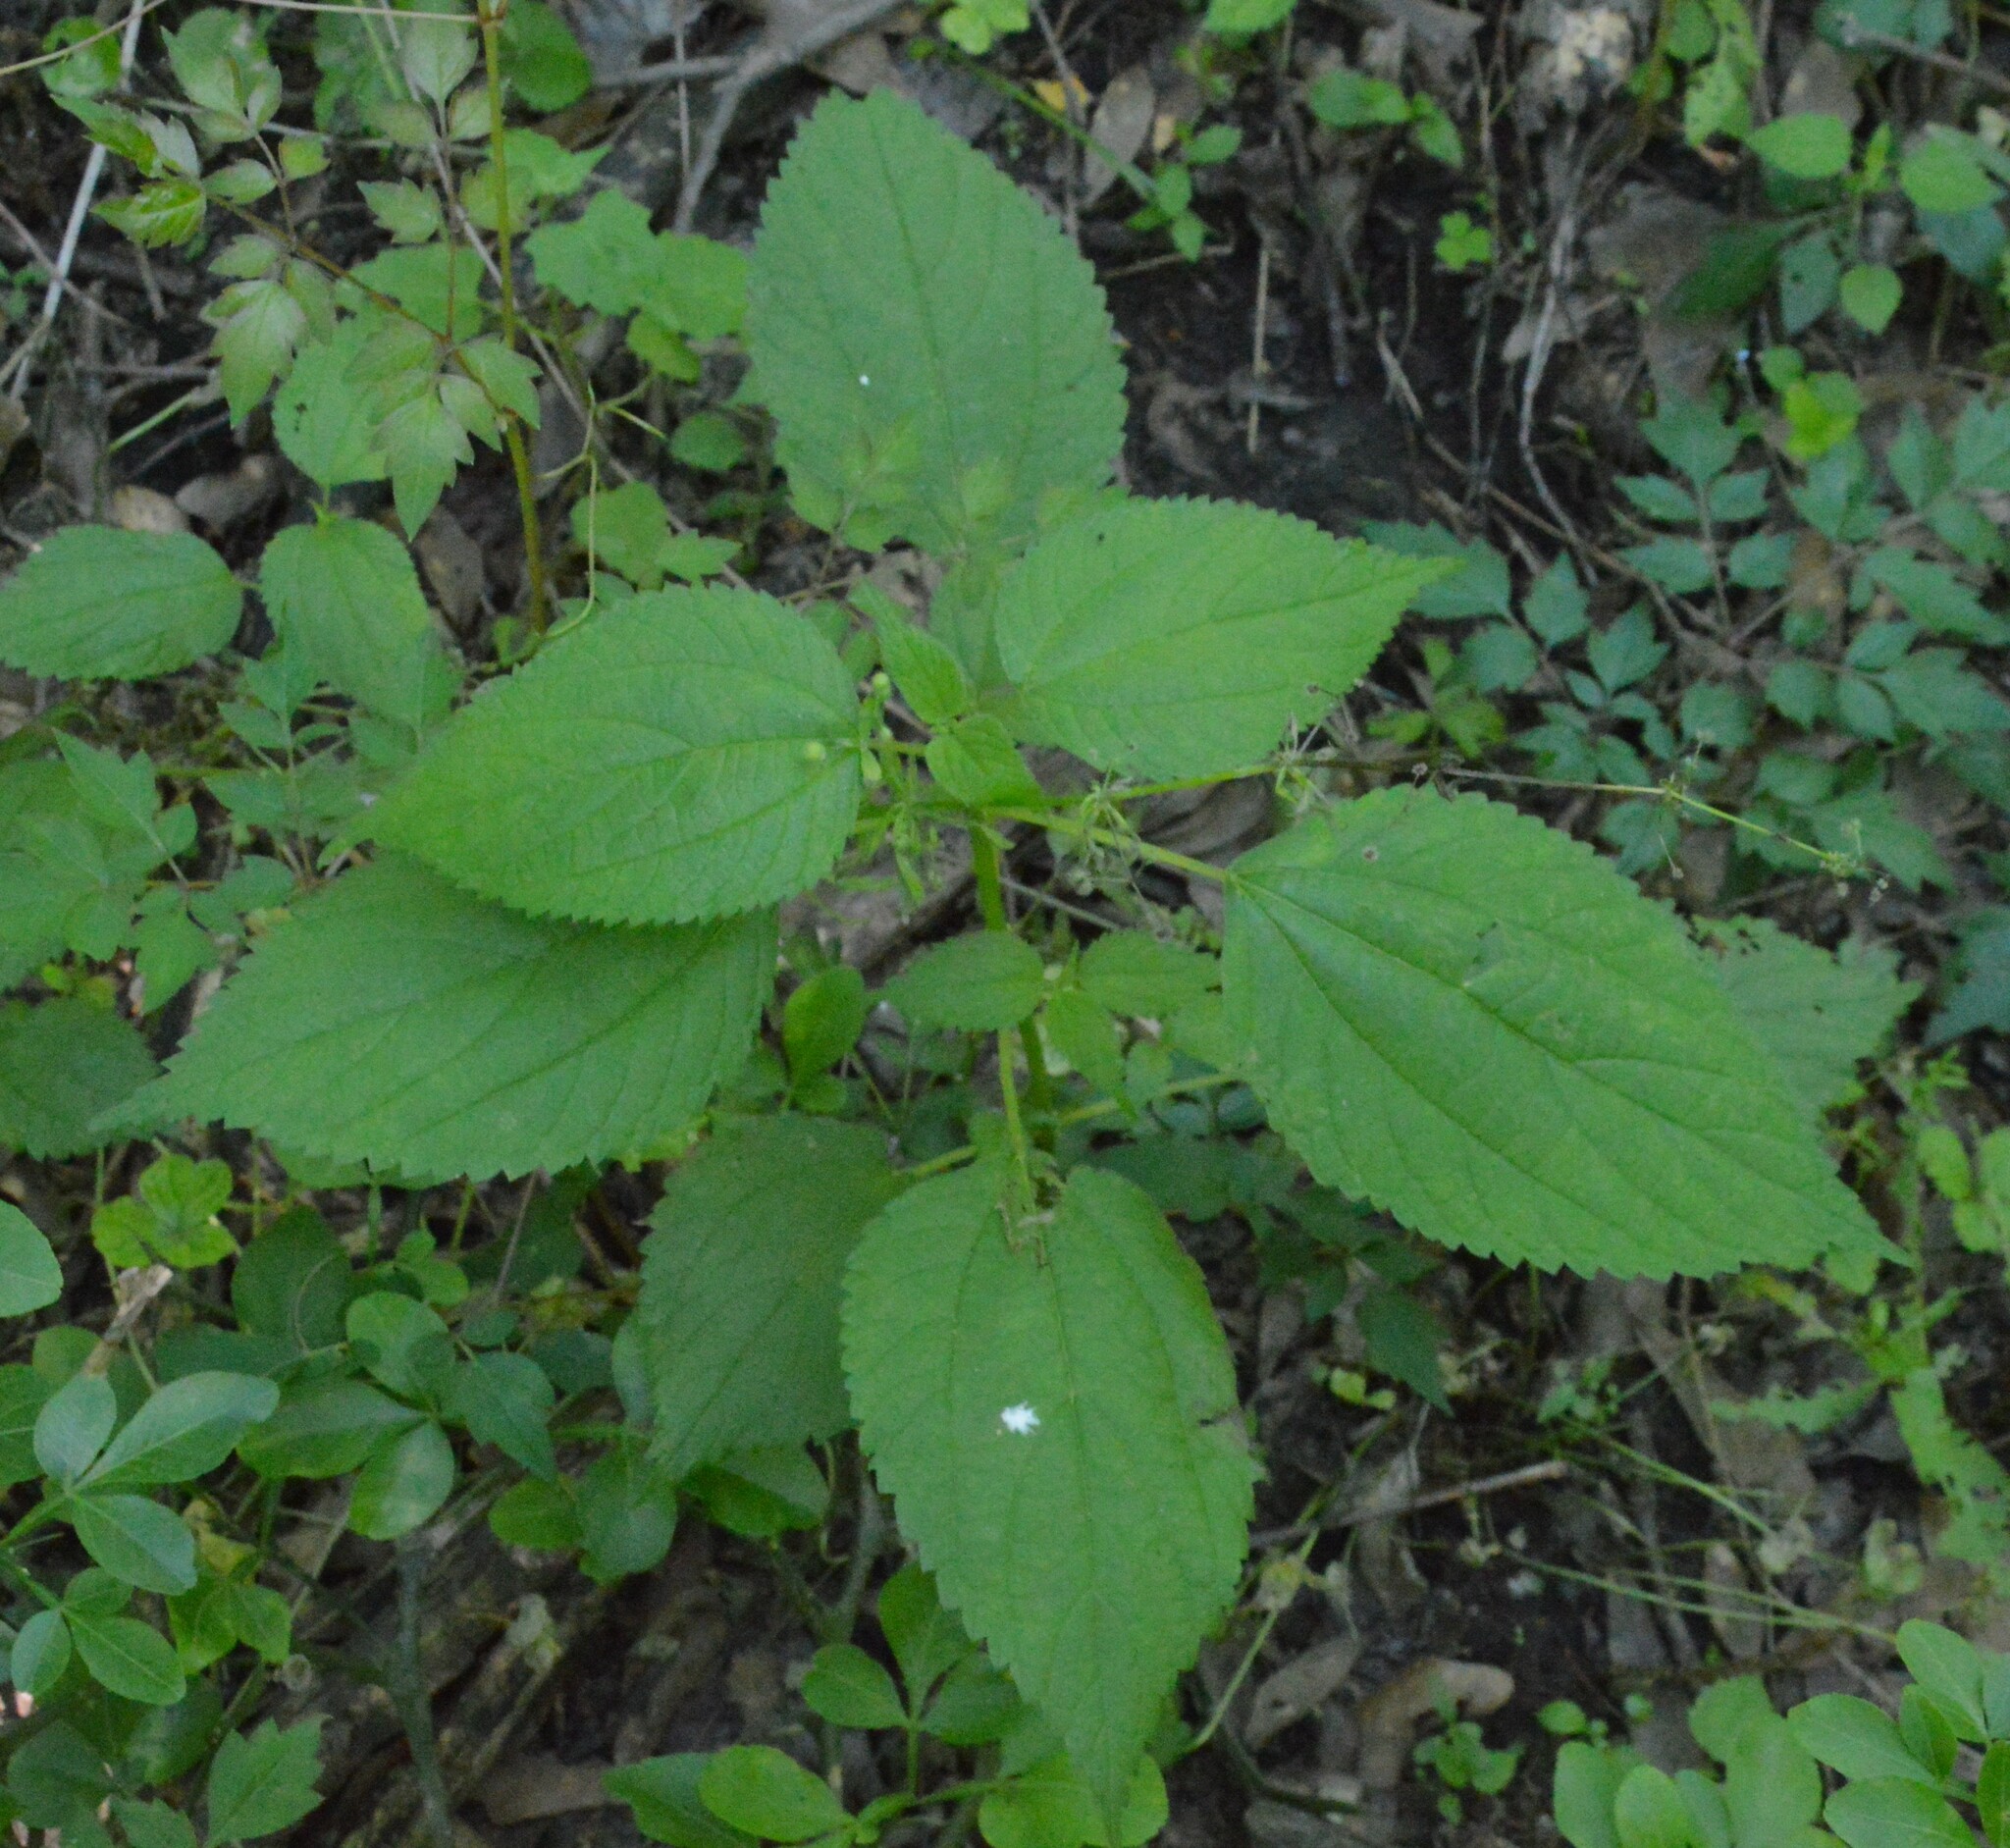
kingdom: Plantae
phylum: Tracheophyta
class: Magnoliopsida
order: Rosales
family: Urticaceae
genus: Boehmeria
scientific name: Boehmeria cylindrica
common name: Bog-hemp
